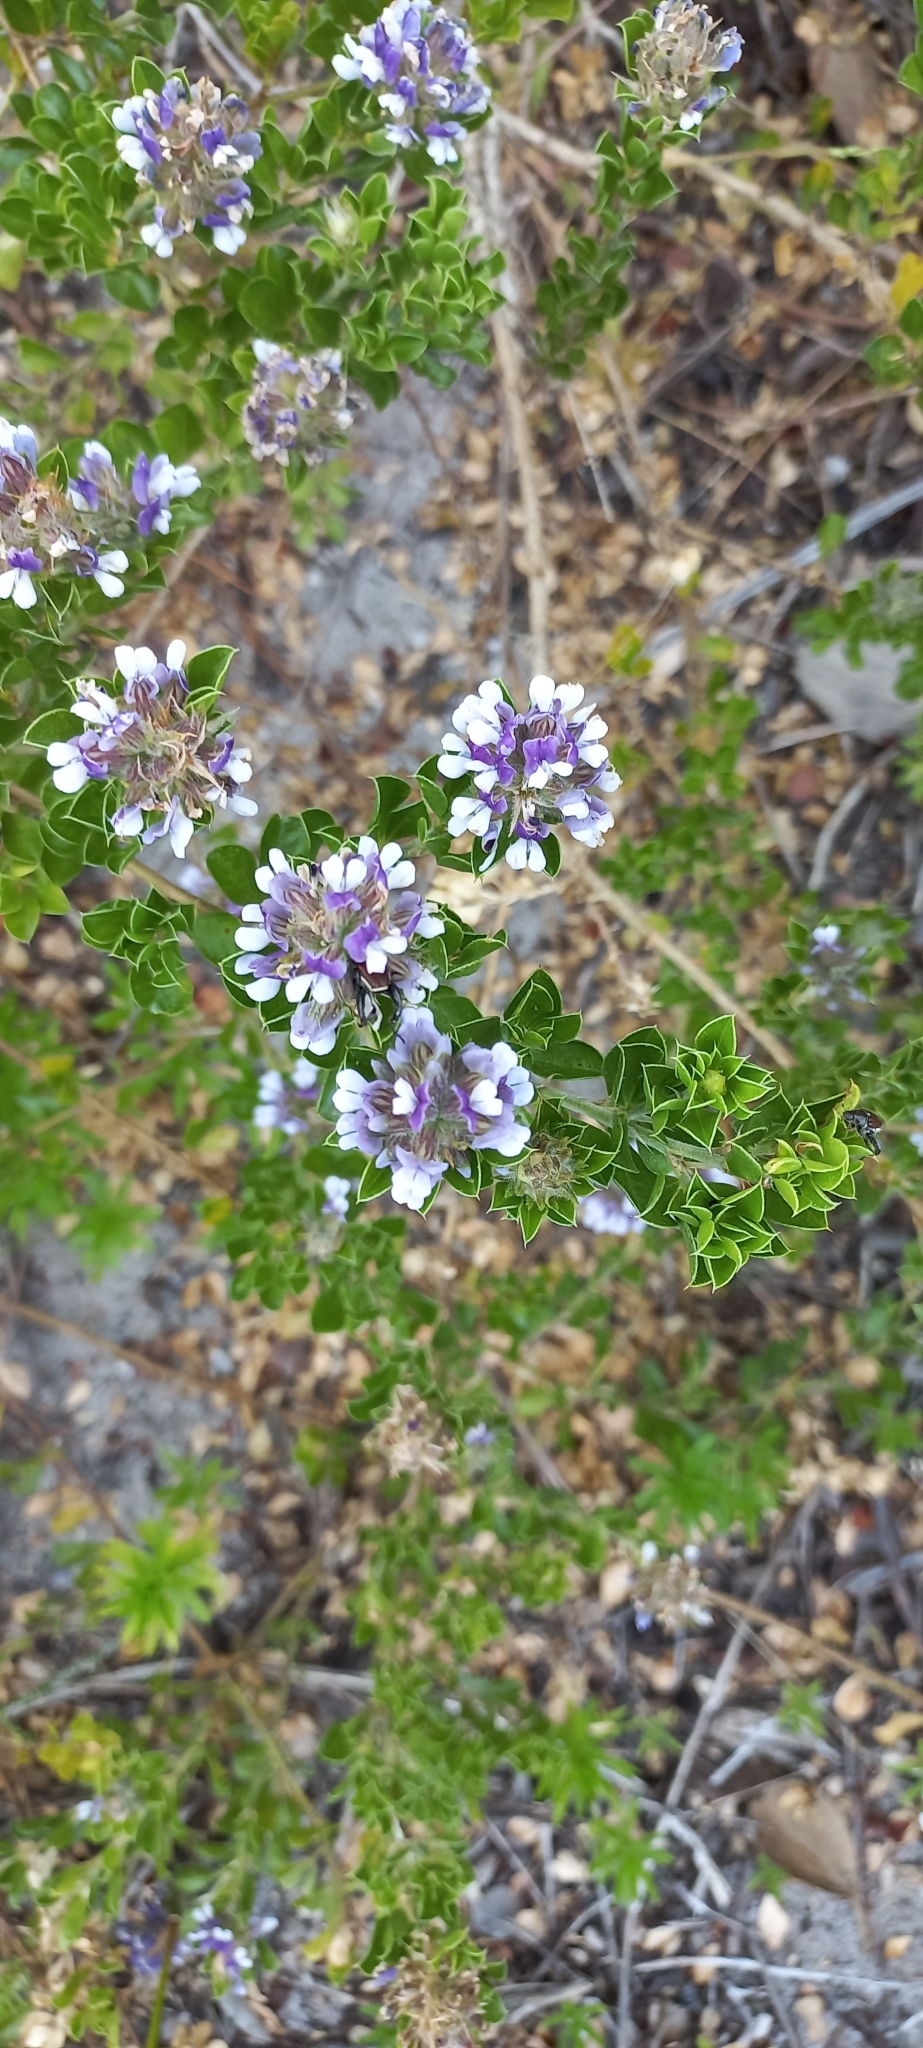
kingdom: Plantae
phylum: Tracheophyta
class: Magnoliopsida
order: Fabales
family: Fabaceae
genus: Psoralea
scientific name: Psoralea bracteolata
